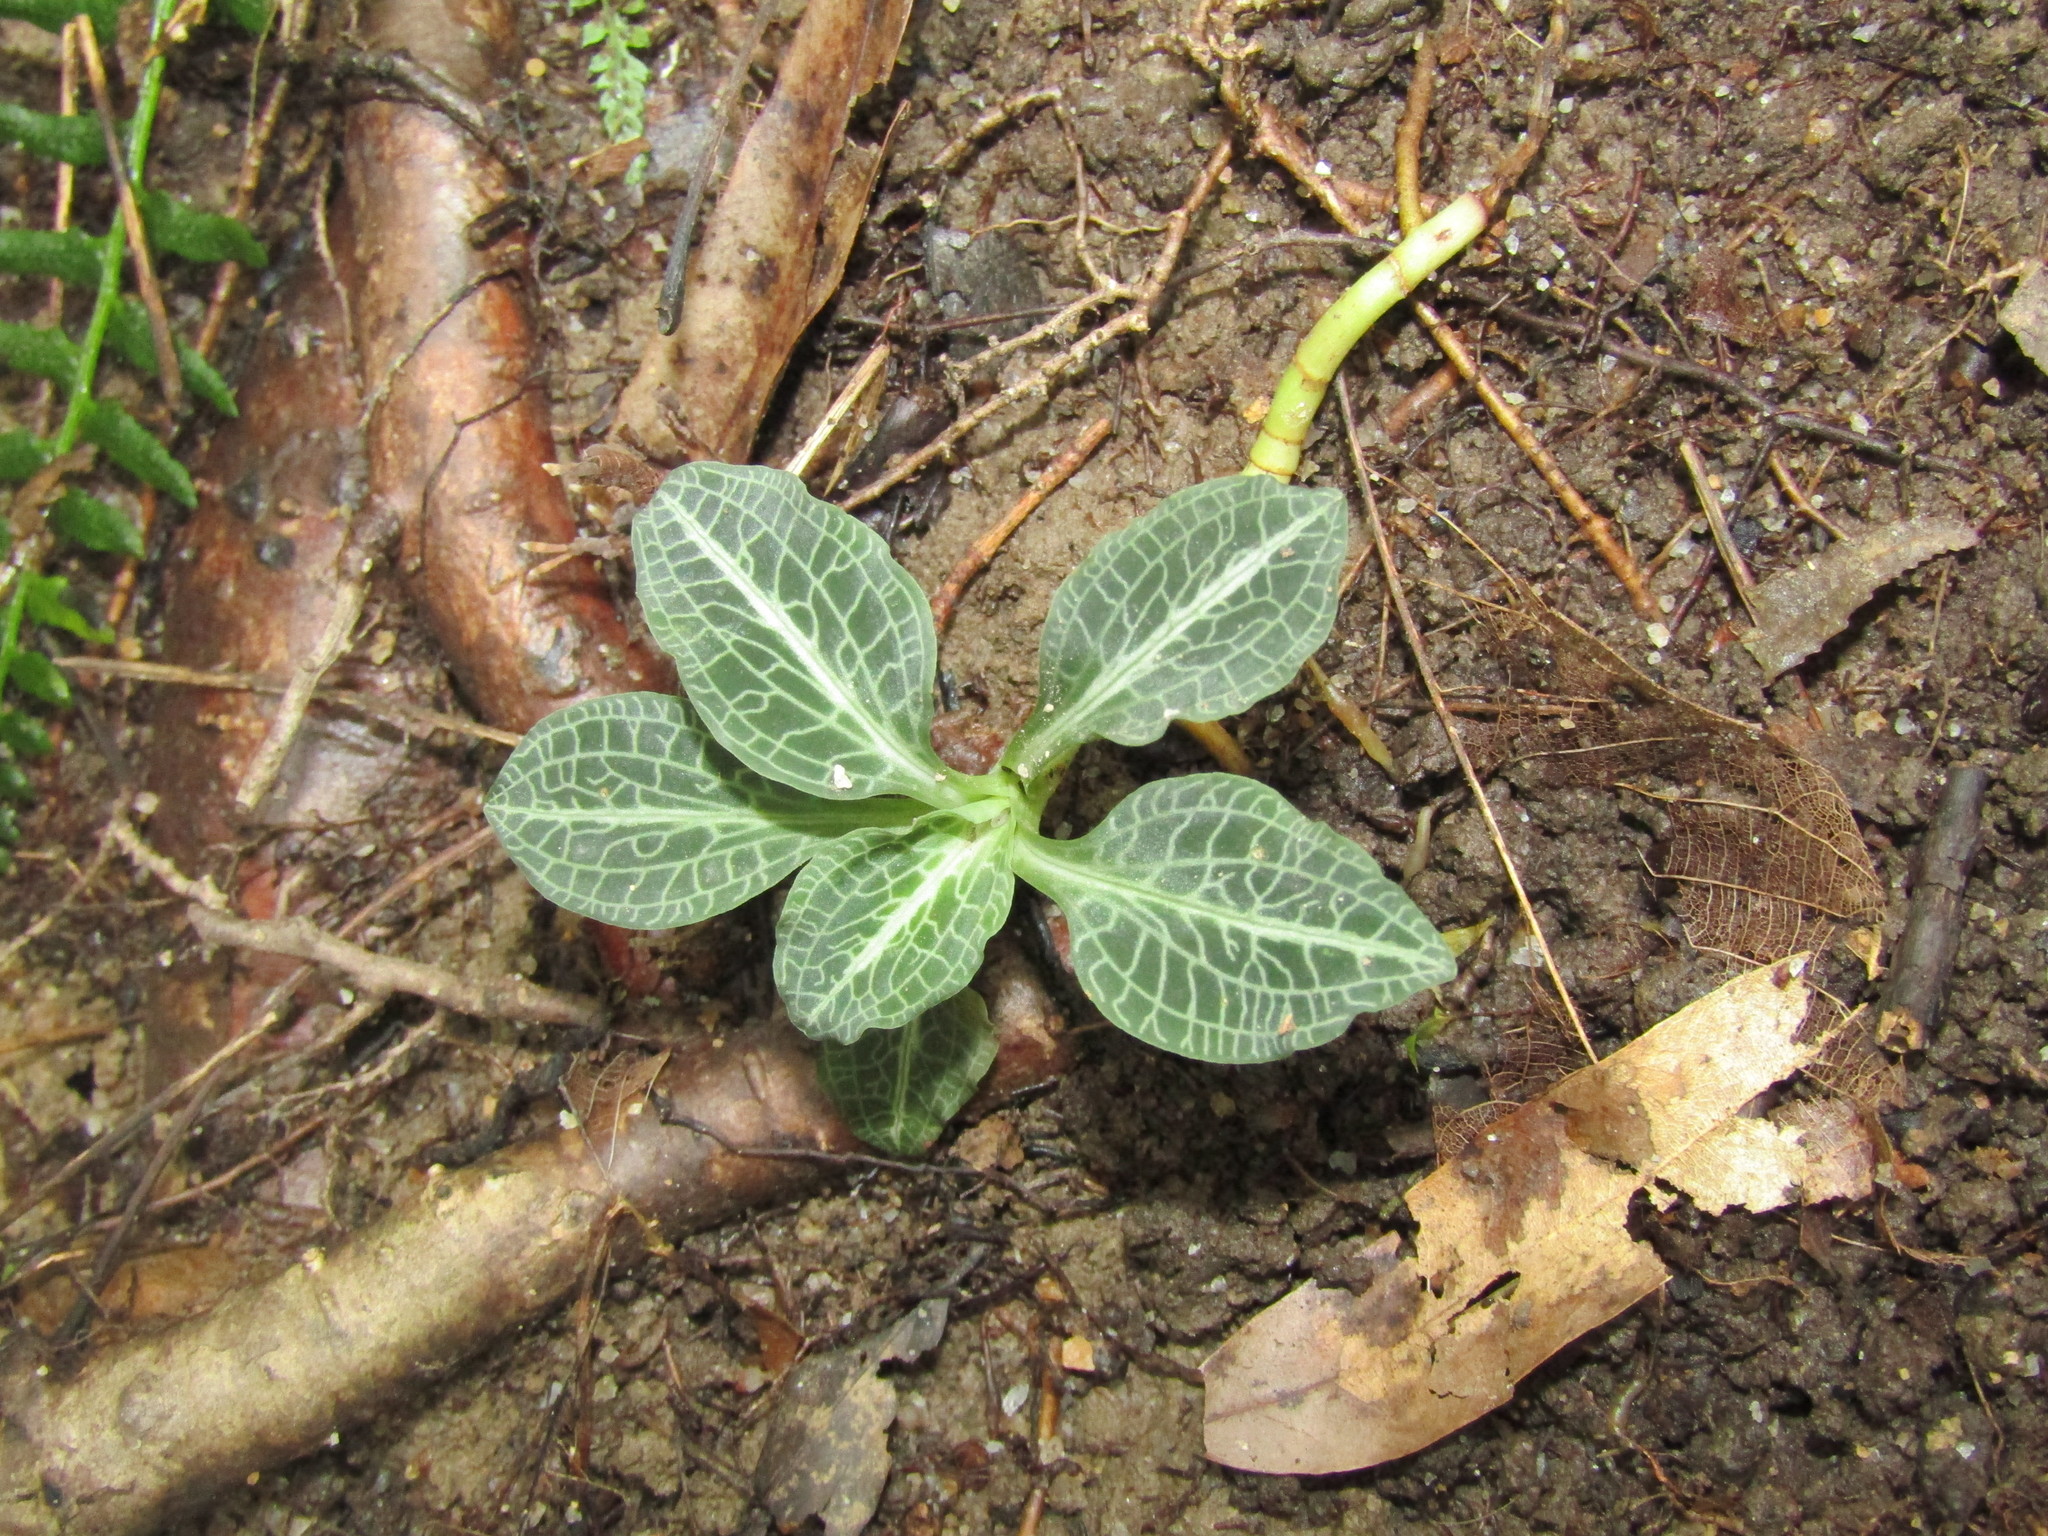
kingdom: Plantae
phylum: Tracheophyta
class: Liliopsida
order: Asparagales
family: Orchidaceae
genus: Goodyera
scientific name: Goodyera pubescens
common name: Downy rattlesnake-plantain
